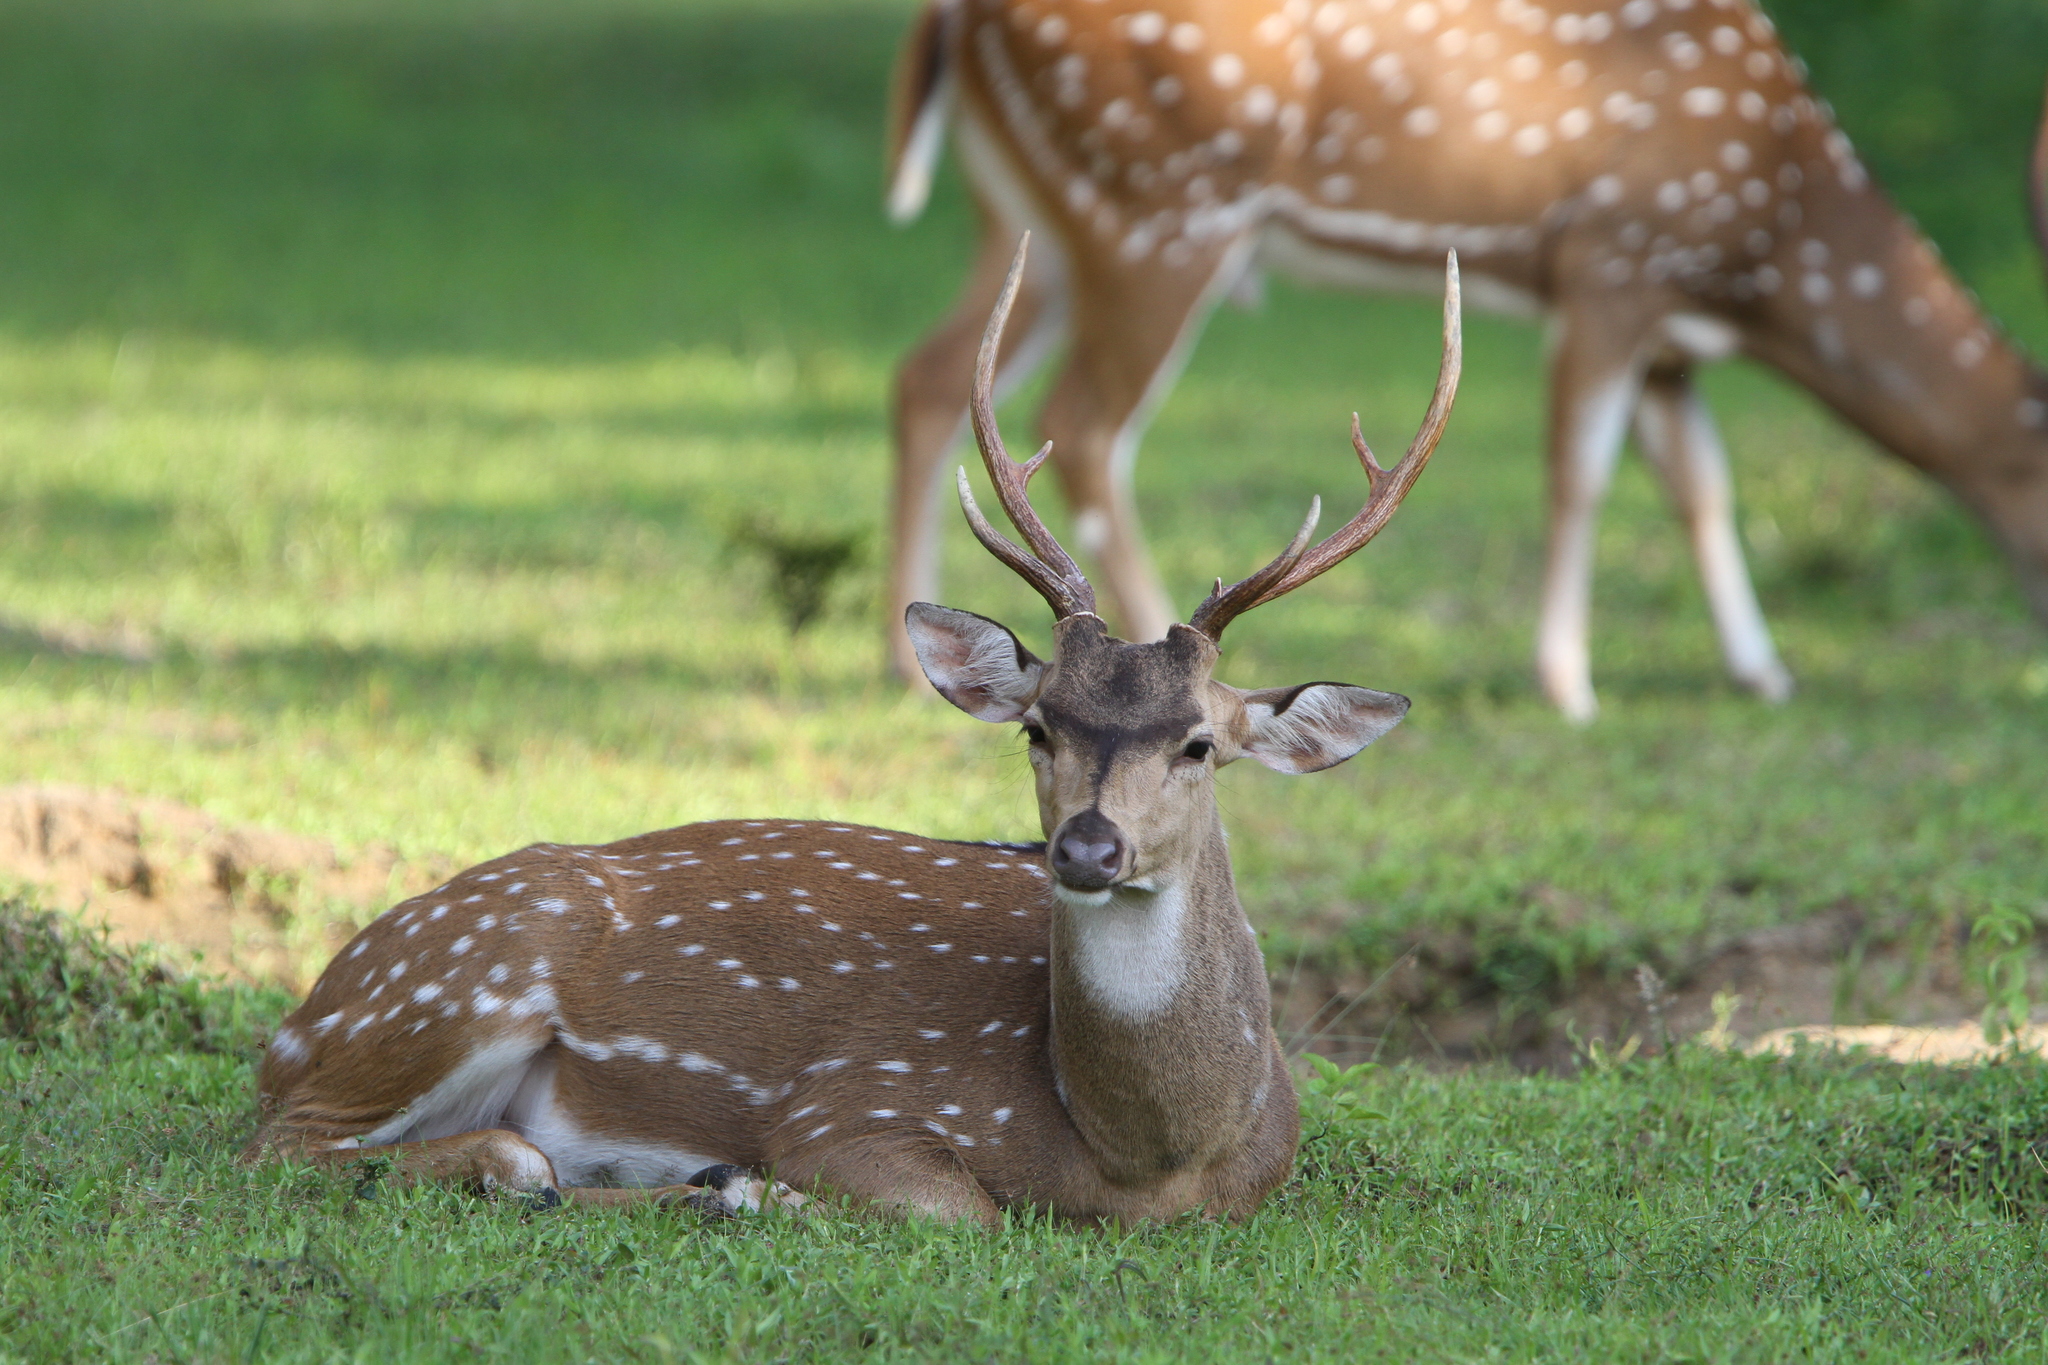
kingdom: Animalia
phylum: Chordata
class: Mammalia
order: Artiodactyla
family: Cervidae
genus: Axis
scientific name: Axis axis
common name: Chital
